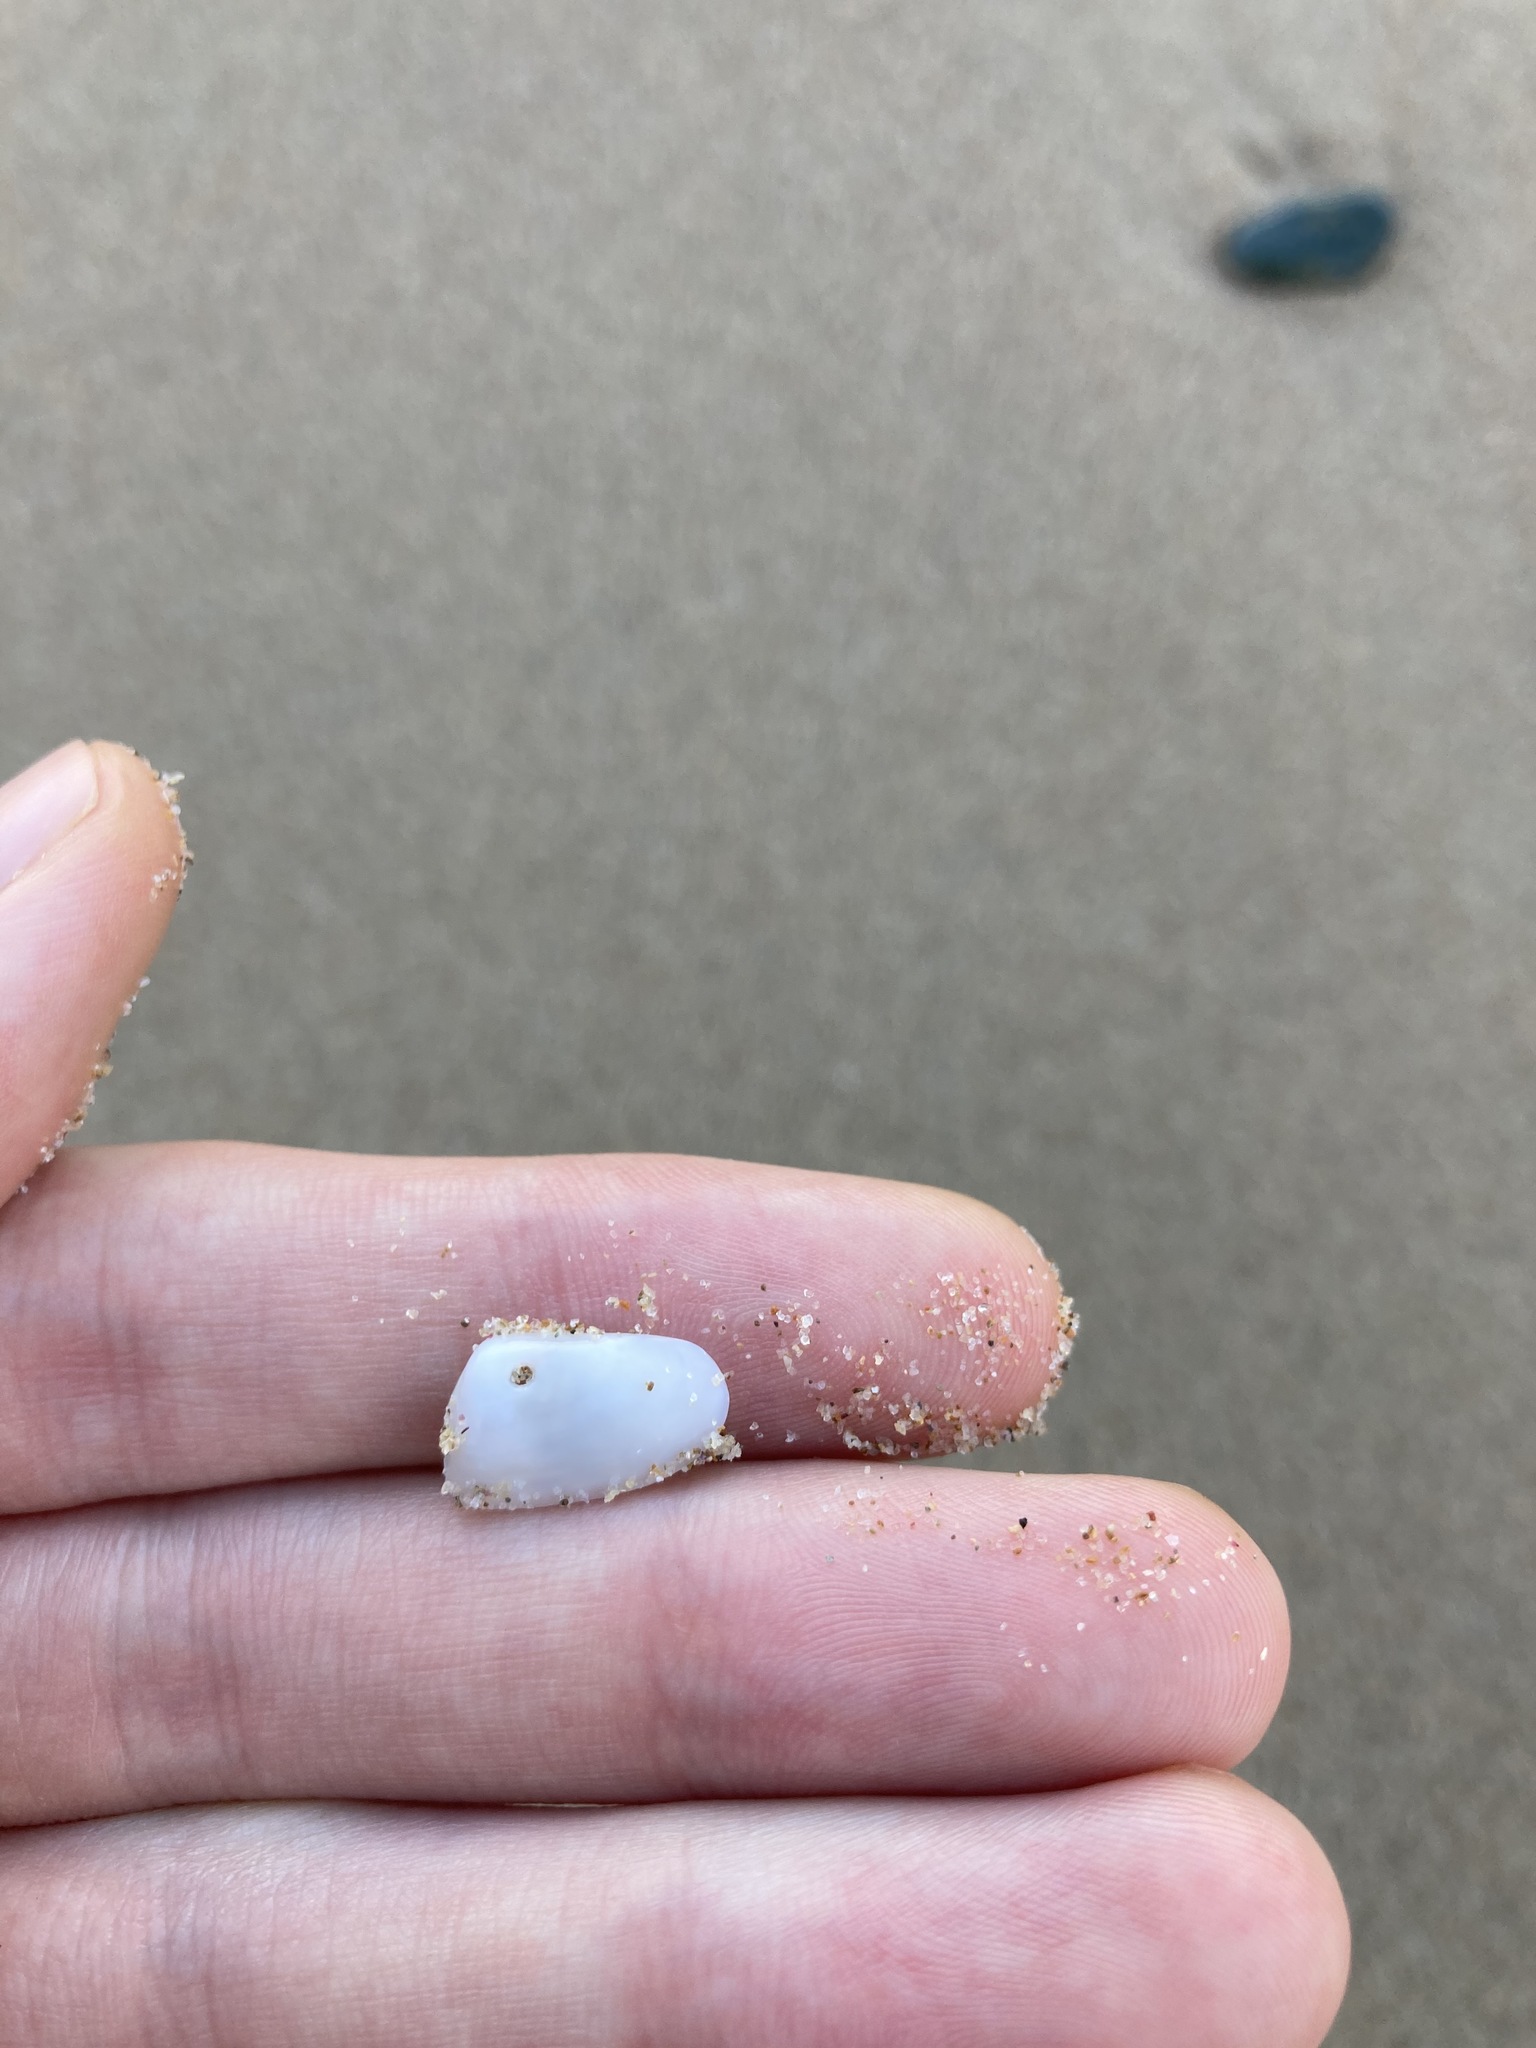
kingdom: Animalia
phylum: Mollusca
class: Bivalvia
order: Venerida
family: Mesodesmatidae
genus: Paphies
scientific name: Paphies angusta
